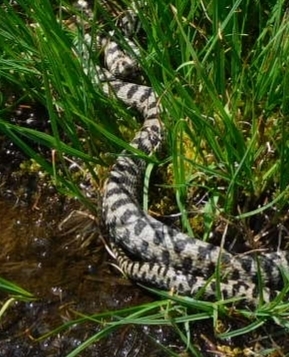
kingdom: Animalia
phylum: Chordata
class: Squamata
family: Viperidae
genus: Vipera
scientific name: Vipera aspis
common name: Asp viper
